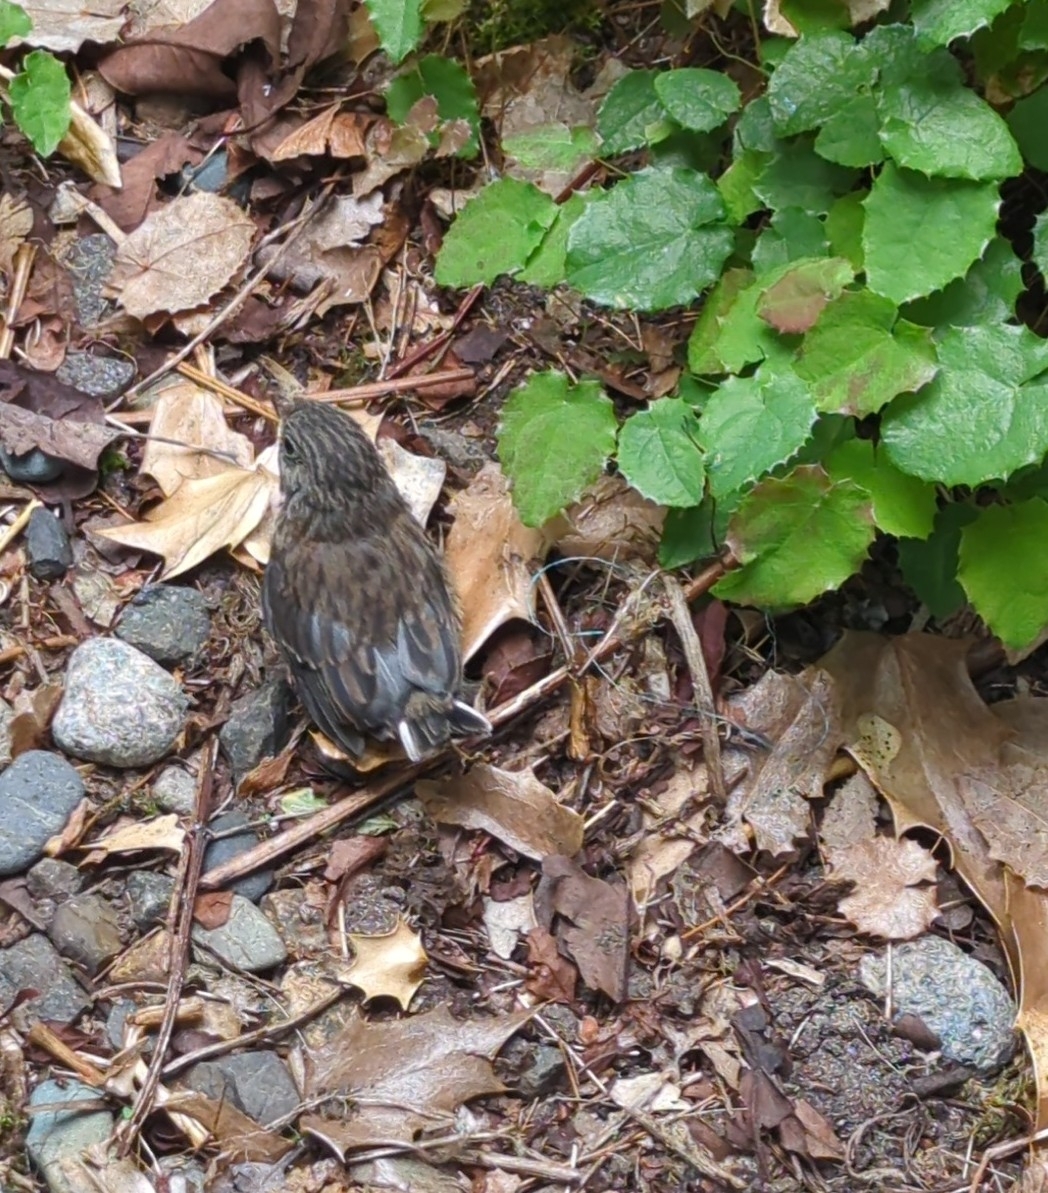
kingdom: Animalia
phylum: Chordata
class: Aves
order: Passeriformes
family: Passerellidae
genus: Junco
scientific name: Junco hyemalis
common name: Dark-eyed junco
